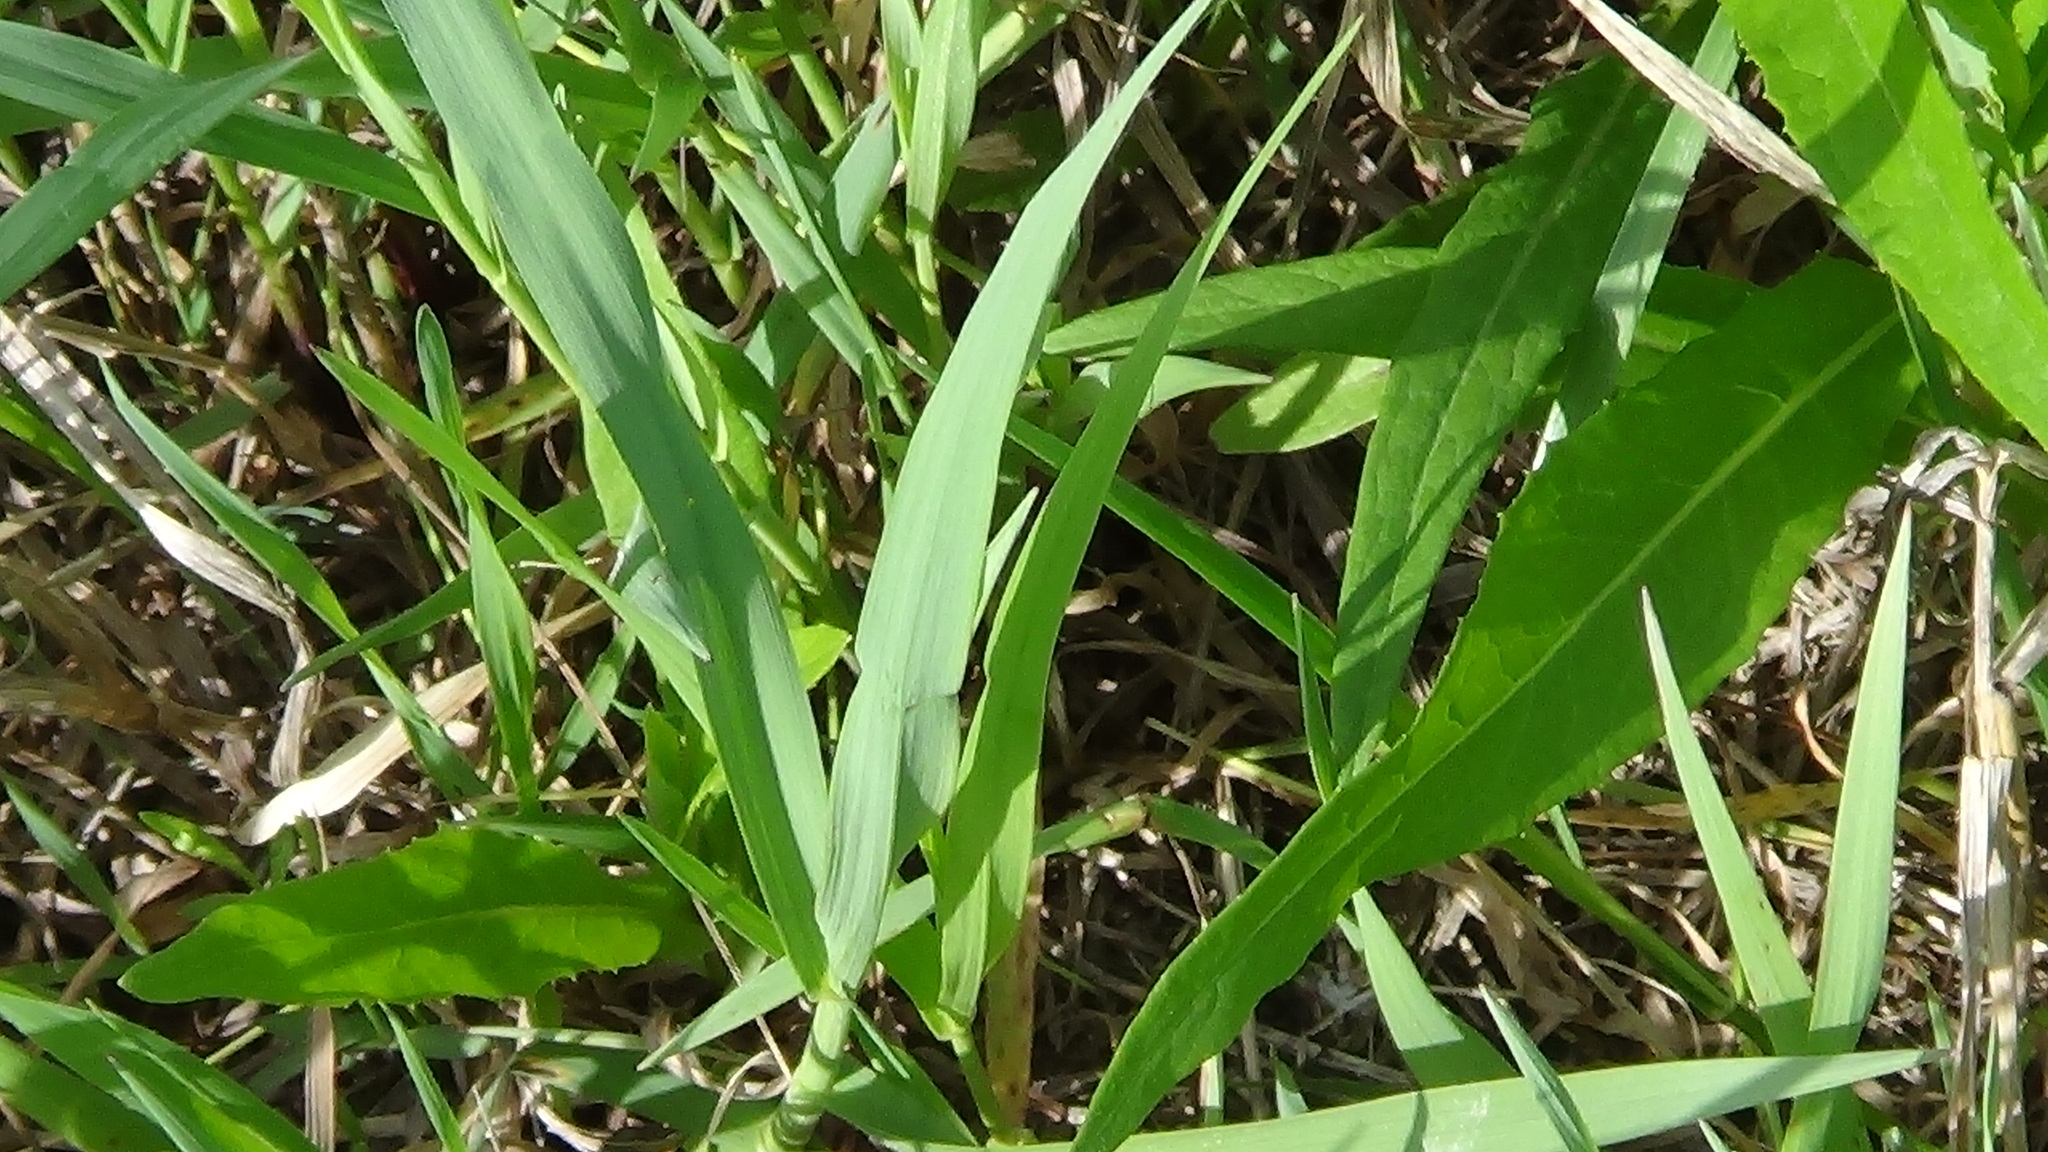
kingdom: Plantae
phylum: Tracheophyta
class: Liliopsida
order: Poales
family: Poaceae
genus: Dactylis
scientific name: Dactylis glomerata
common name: Orchardgrass
